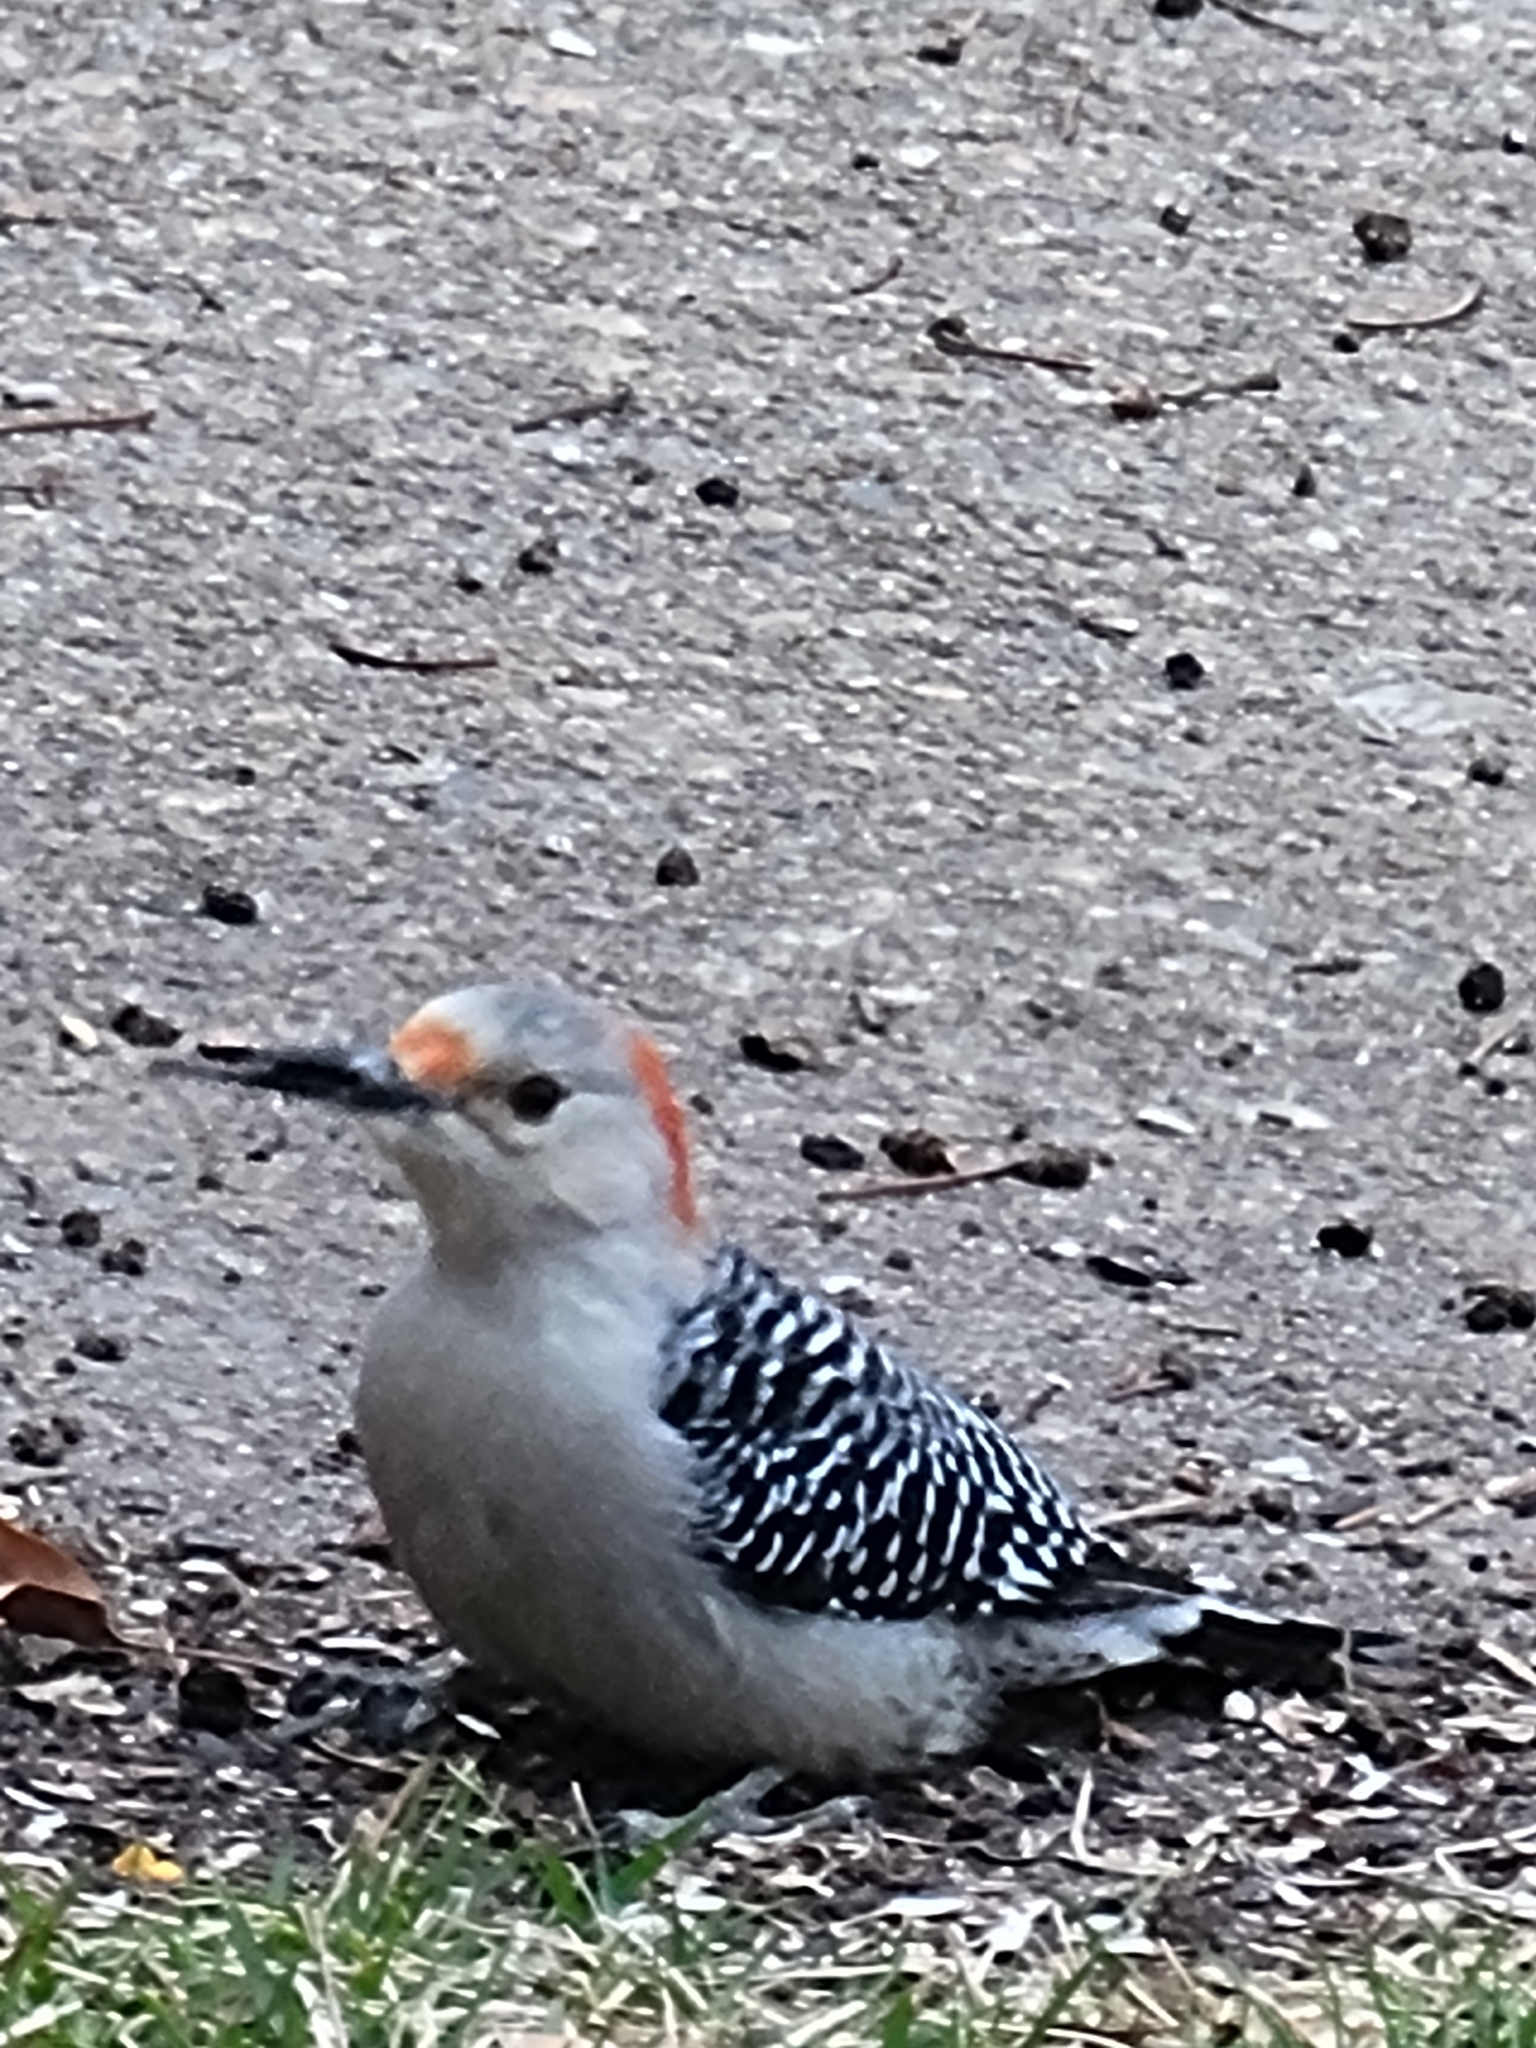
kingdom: Animalia
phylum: Chordata
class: Aves
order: Piciformes
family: Picidae
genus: Melanerpes
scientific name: Melanerpes carolinus
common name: Red-bellied woodpecker
